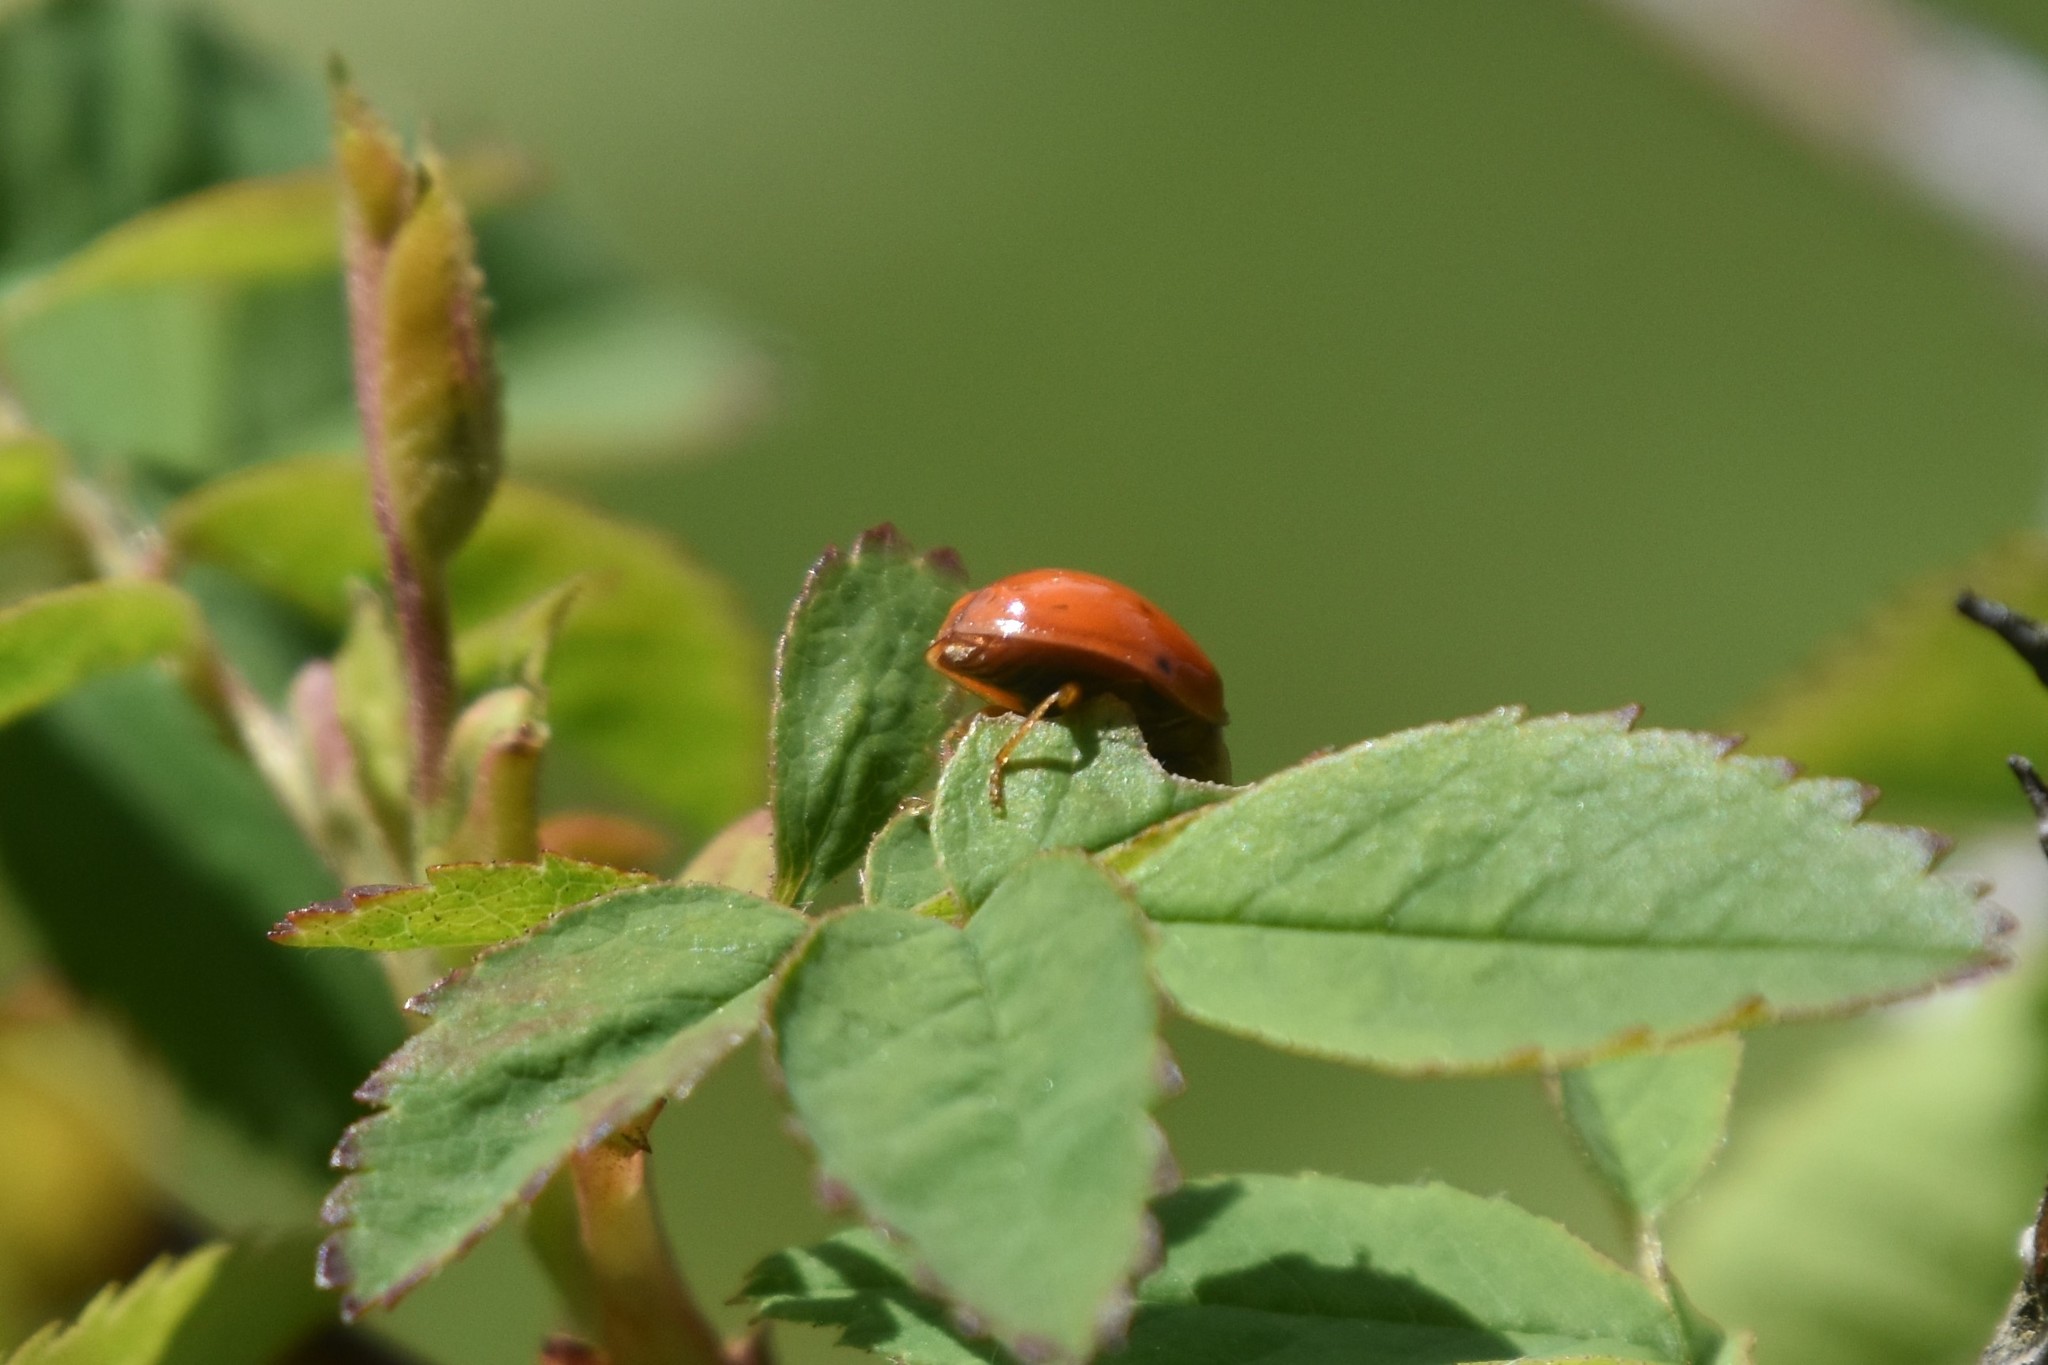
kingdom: Animalia
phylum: Arthropoda
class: Insecta
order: Coleoptera
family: Coccinellidae
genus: Harmonia
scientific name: Harmonia axyridis
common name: Harlequin ladybird
